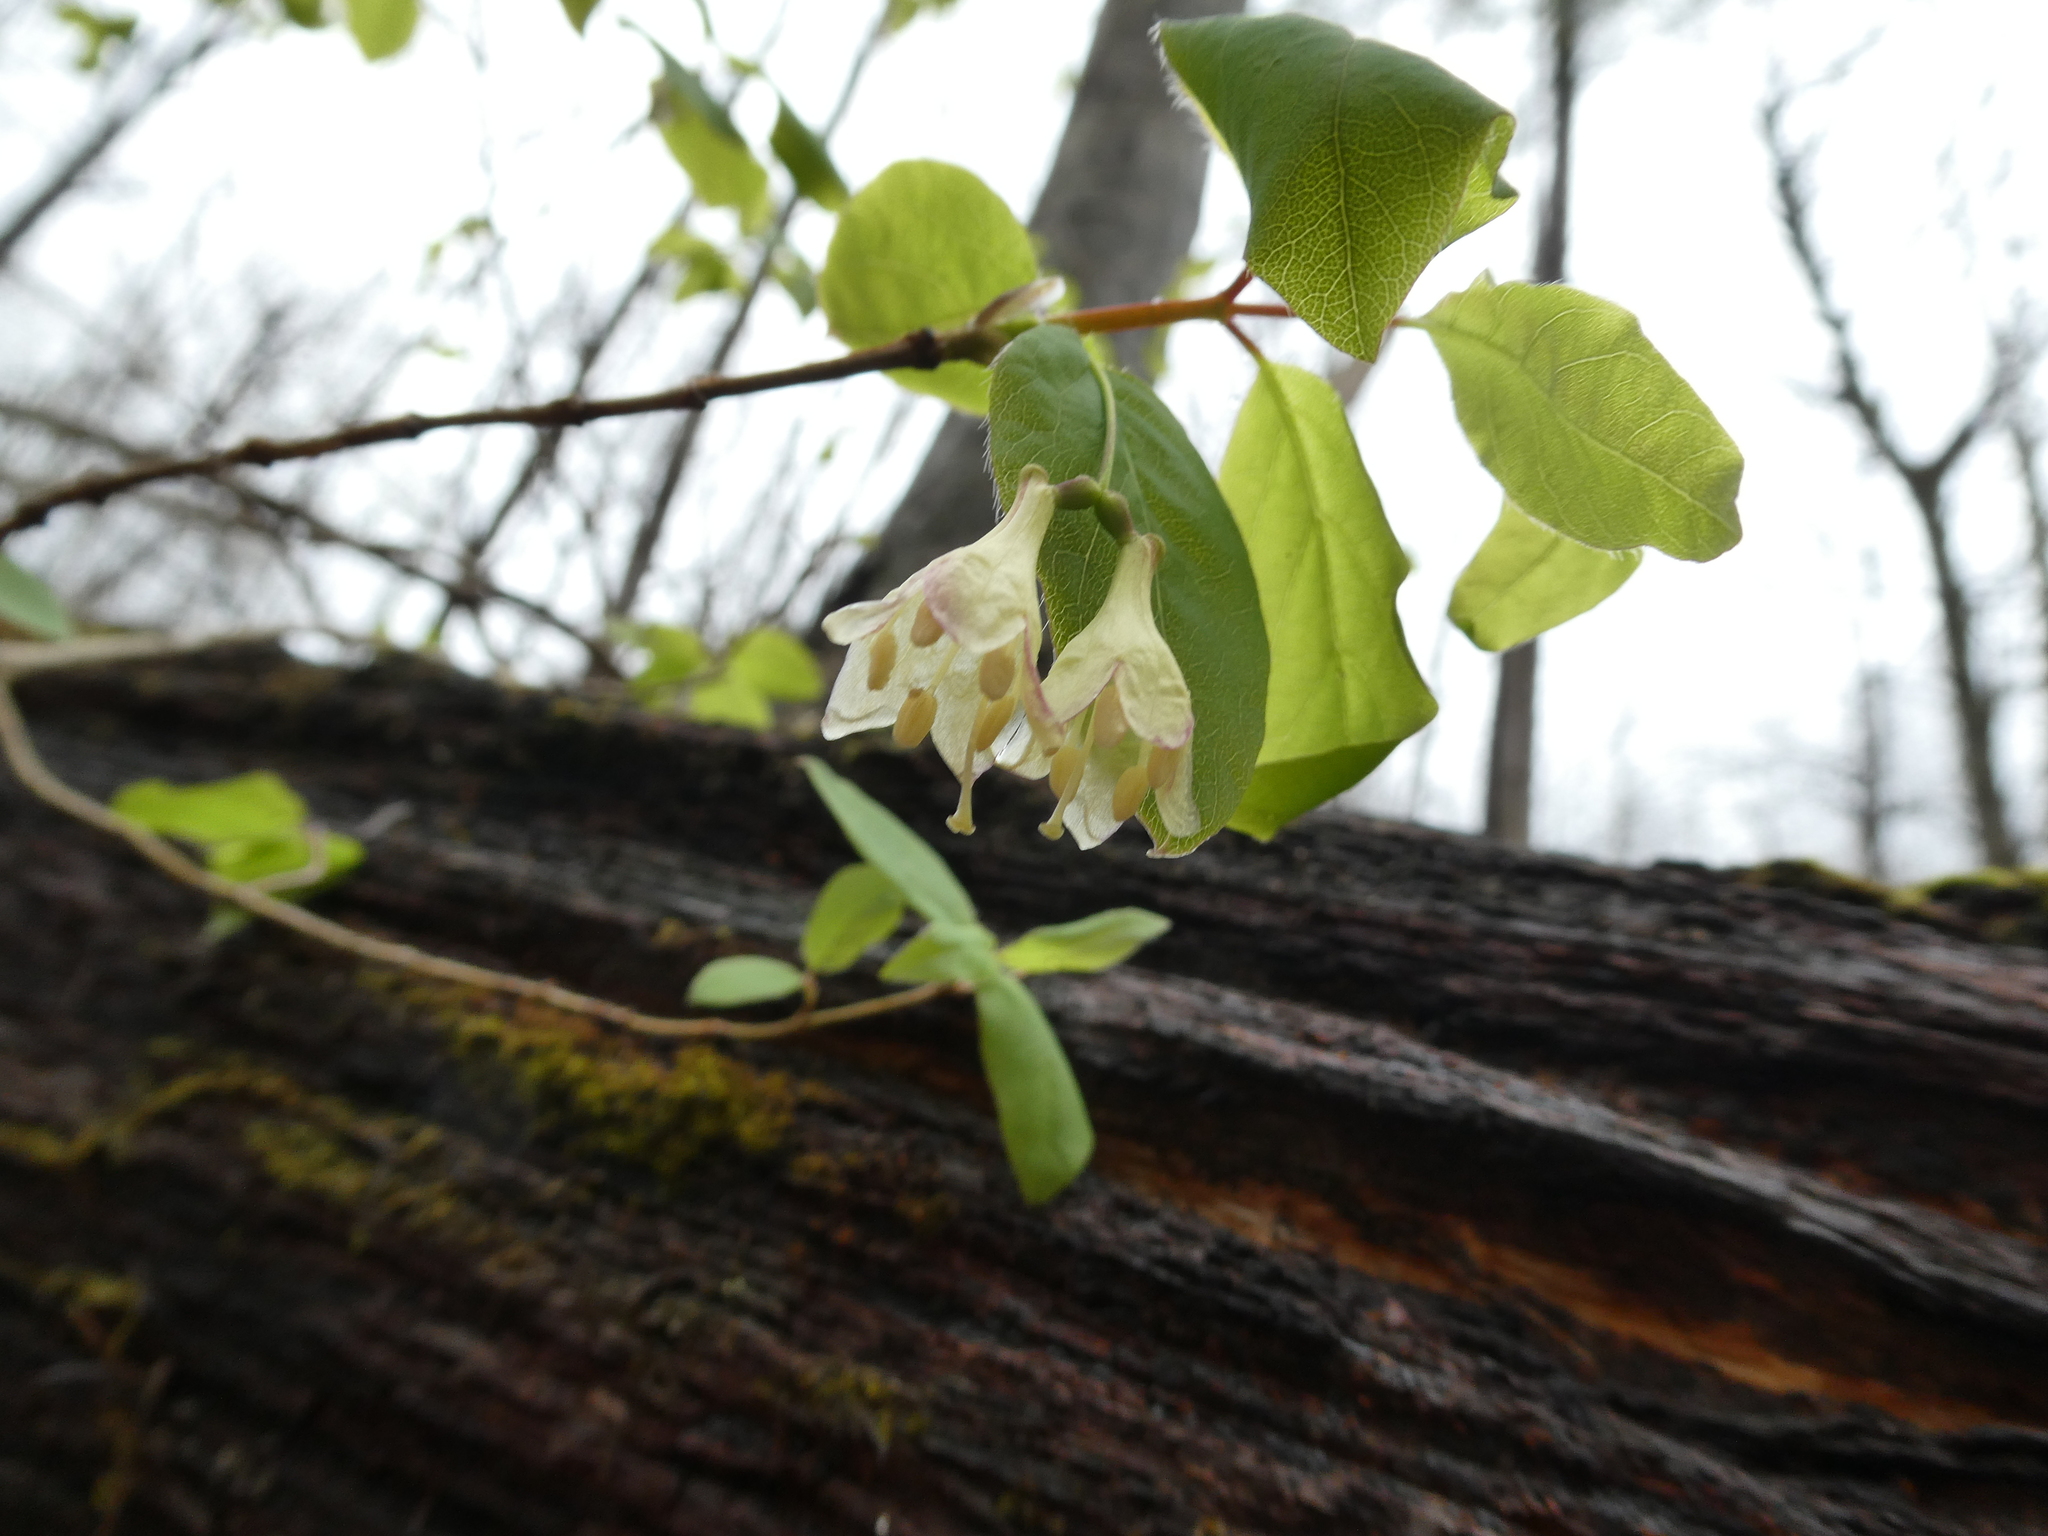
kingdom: Plantae
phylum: Tracheophyta
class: Magnoliopsida
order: Dipsacales
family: Caprifoliaceae
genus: Lonicera
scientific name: Lonicera canadensis
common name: American fly-honeysuckle
